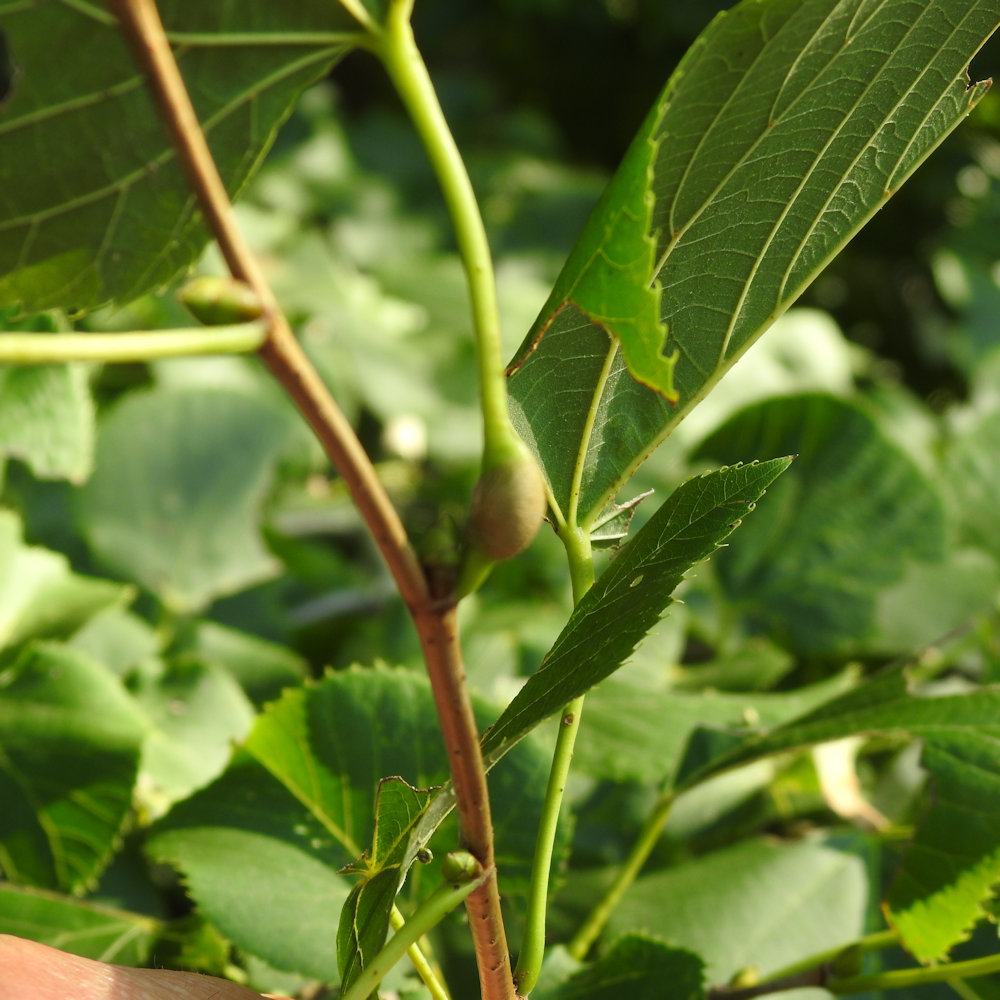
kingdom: Animalia
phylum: Arthropoda
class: Insecta
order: Diptera
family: Cecidomyiidae
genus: Contarinia
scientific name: Contarinia citrina
